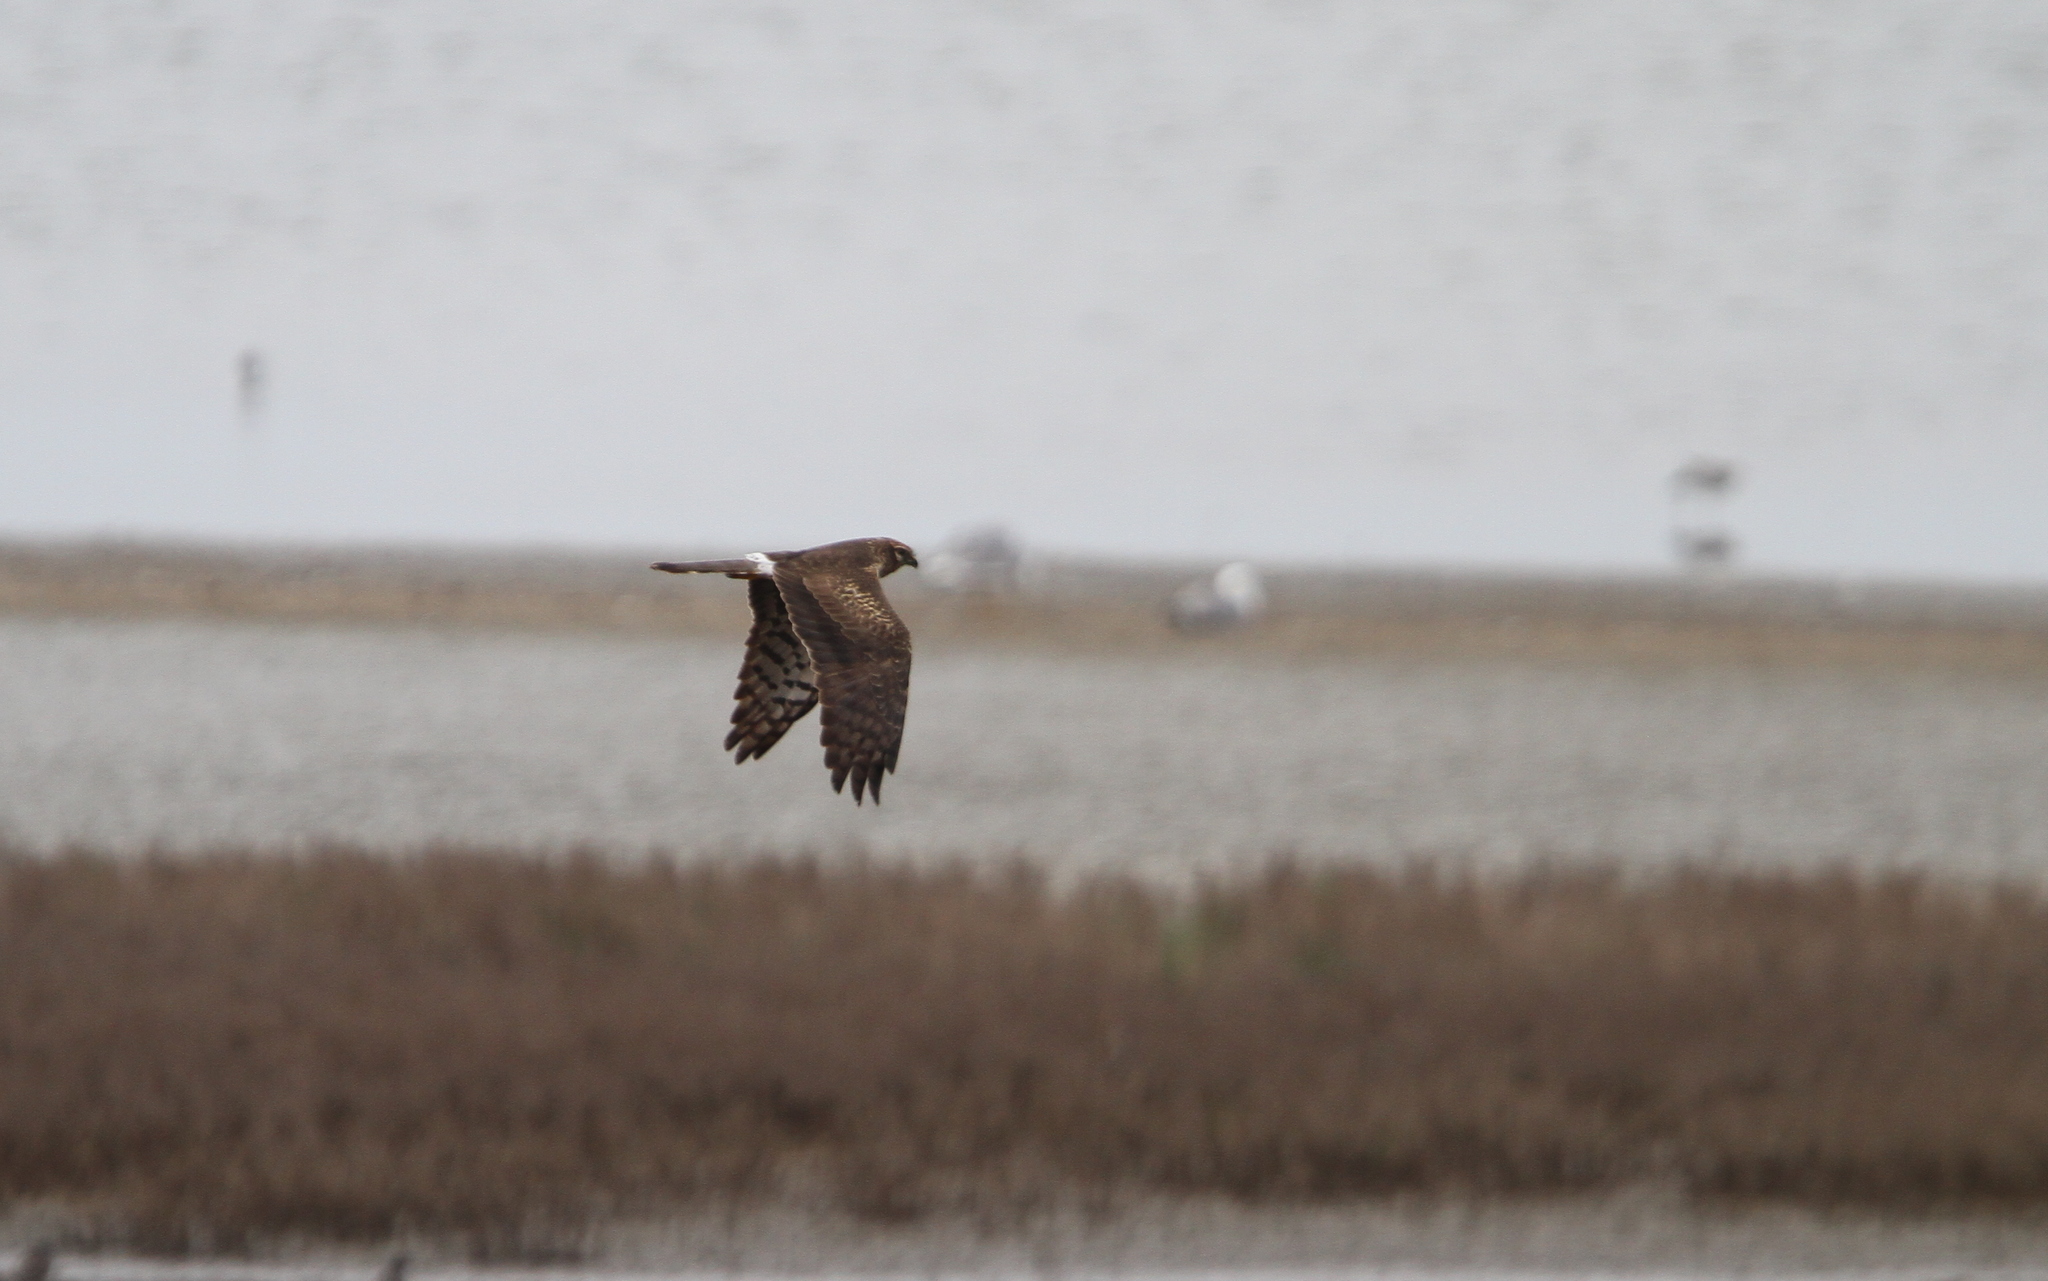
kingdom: Animalia
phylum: Chordata
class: Aves
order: Accipitriformes
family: Accipitridae
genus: Circus
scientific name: Circus pygargus
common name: Montagu's harrier
